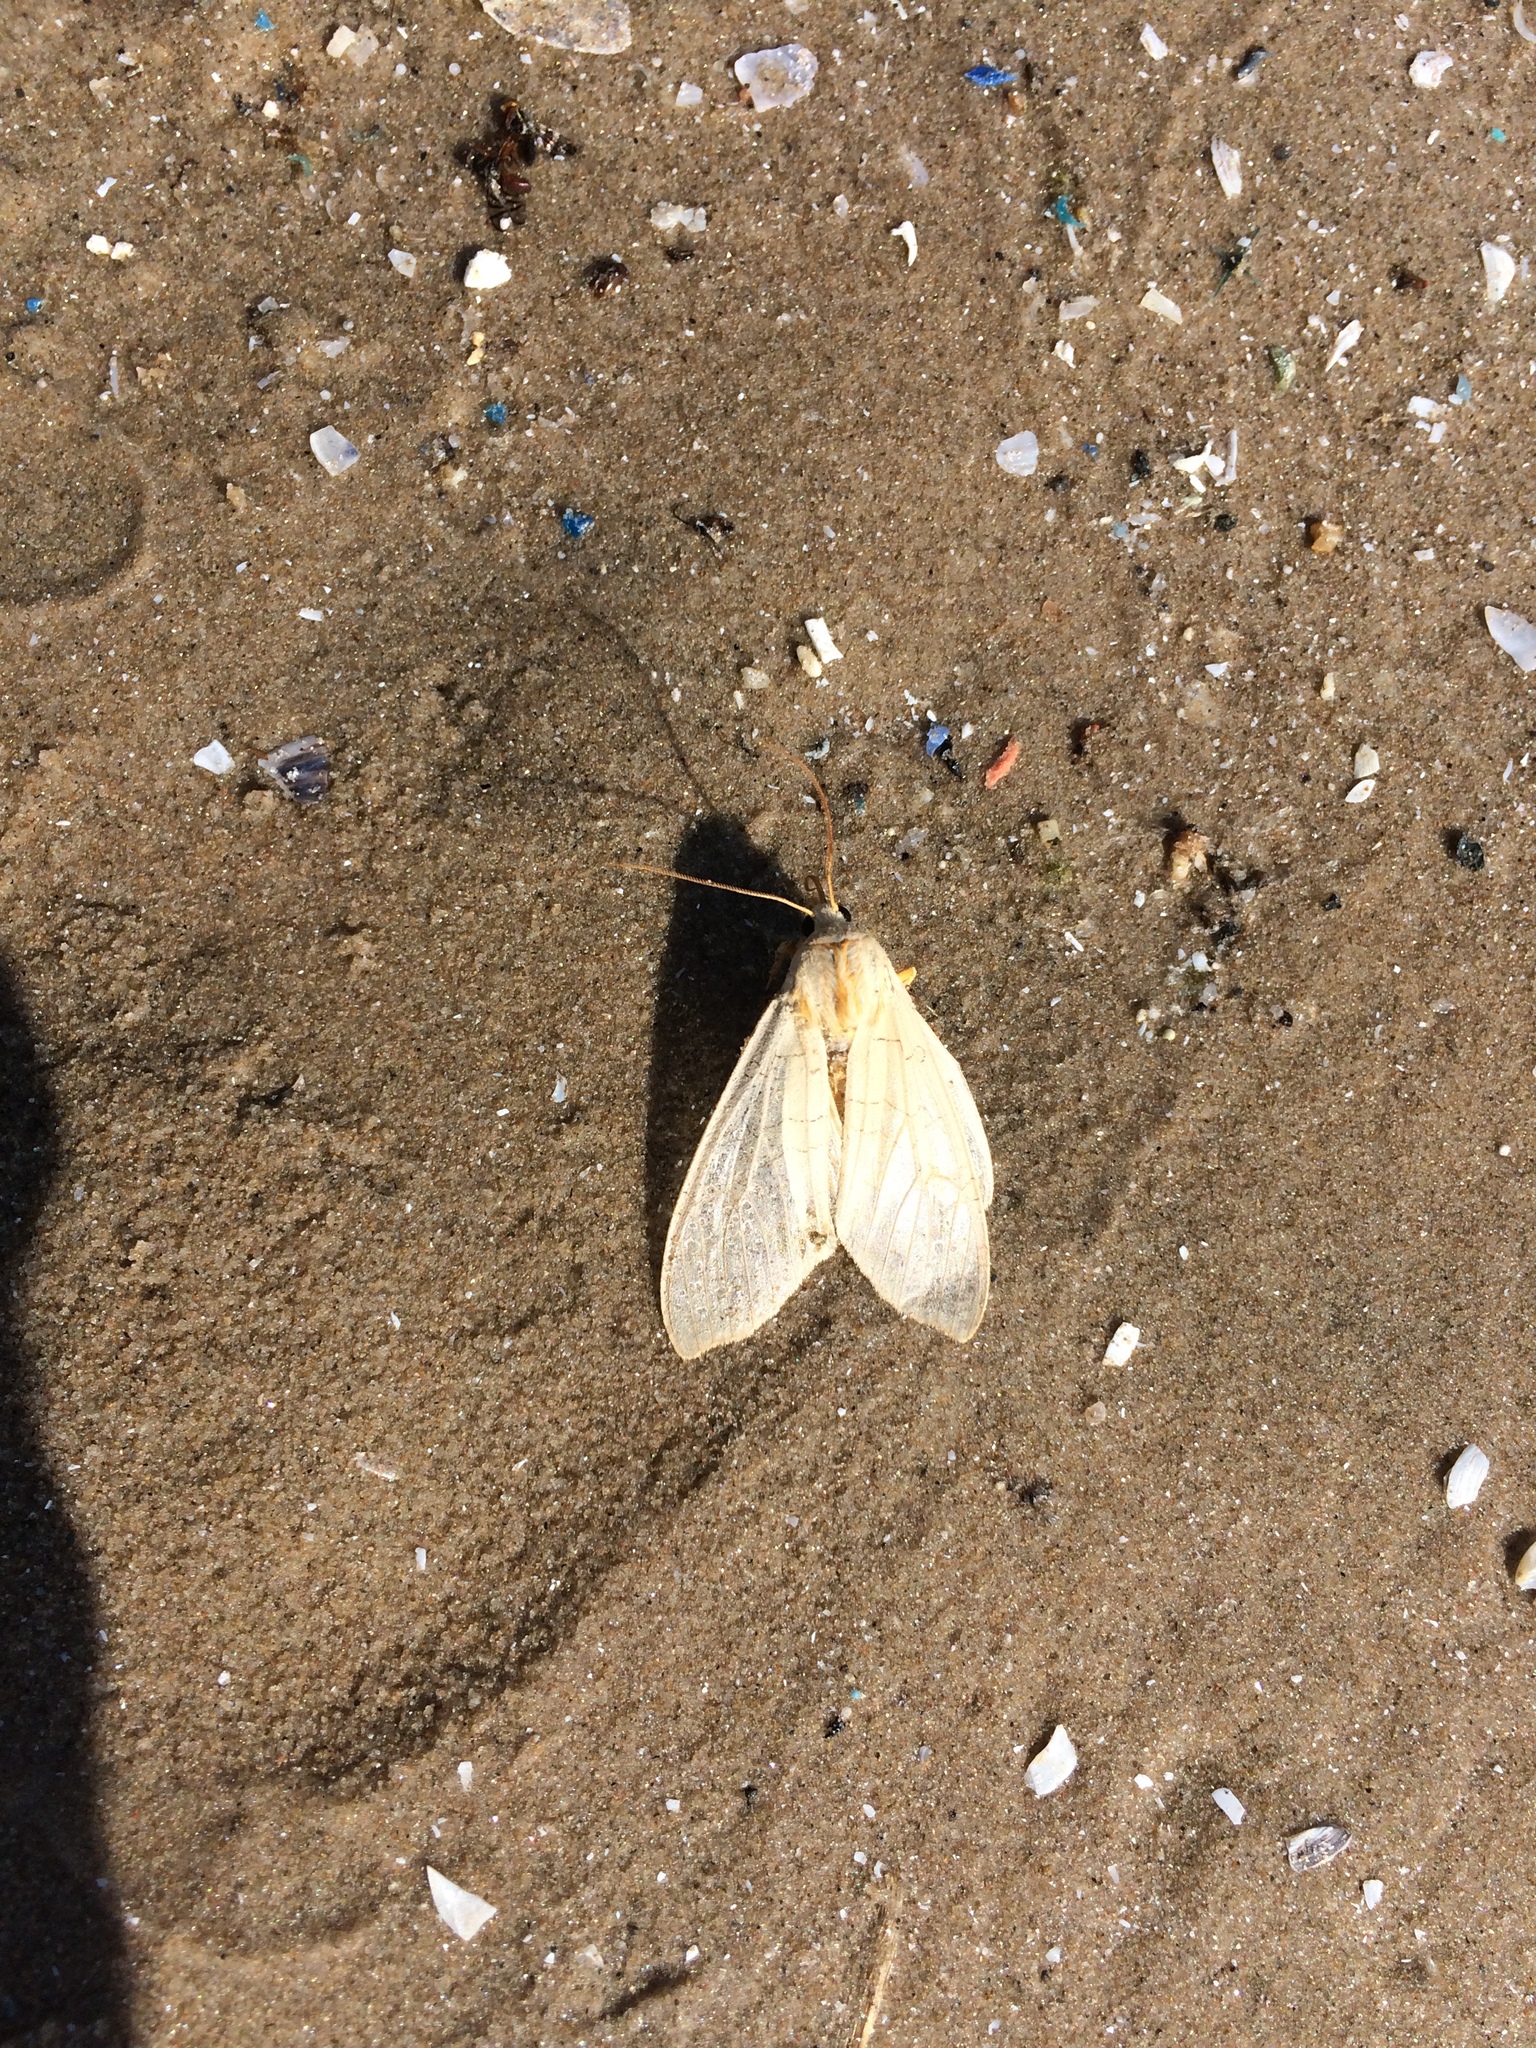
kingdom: Animalia
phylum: Arthropoda
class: Insecta
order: Lepidoptera
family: Erebidae
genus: Halysidota
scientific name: Halysidota
